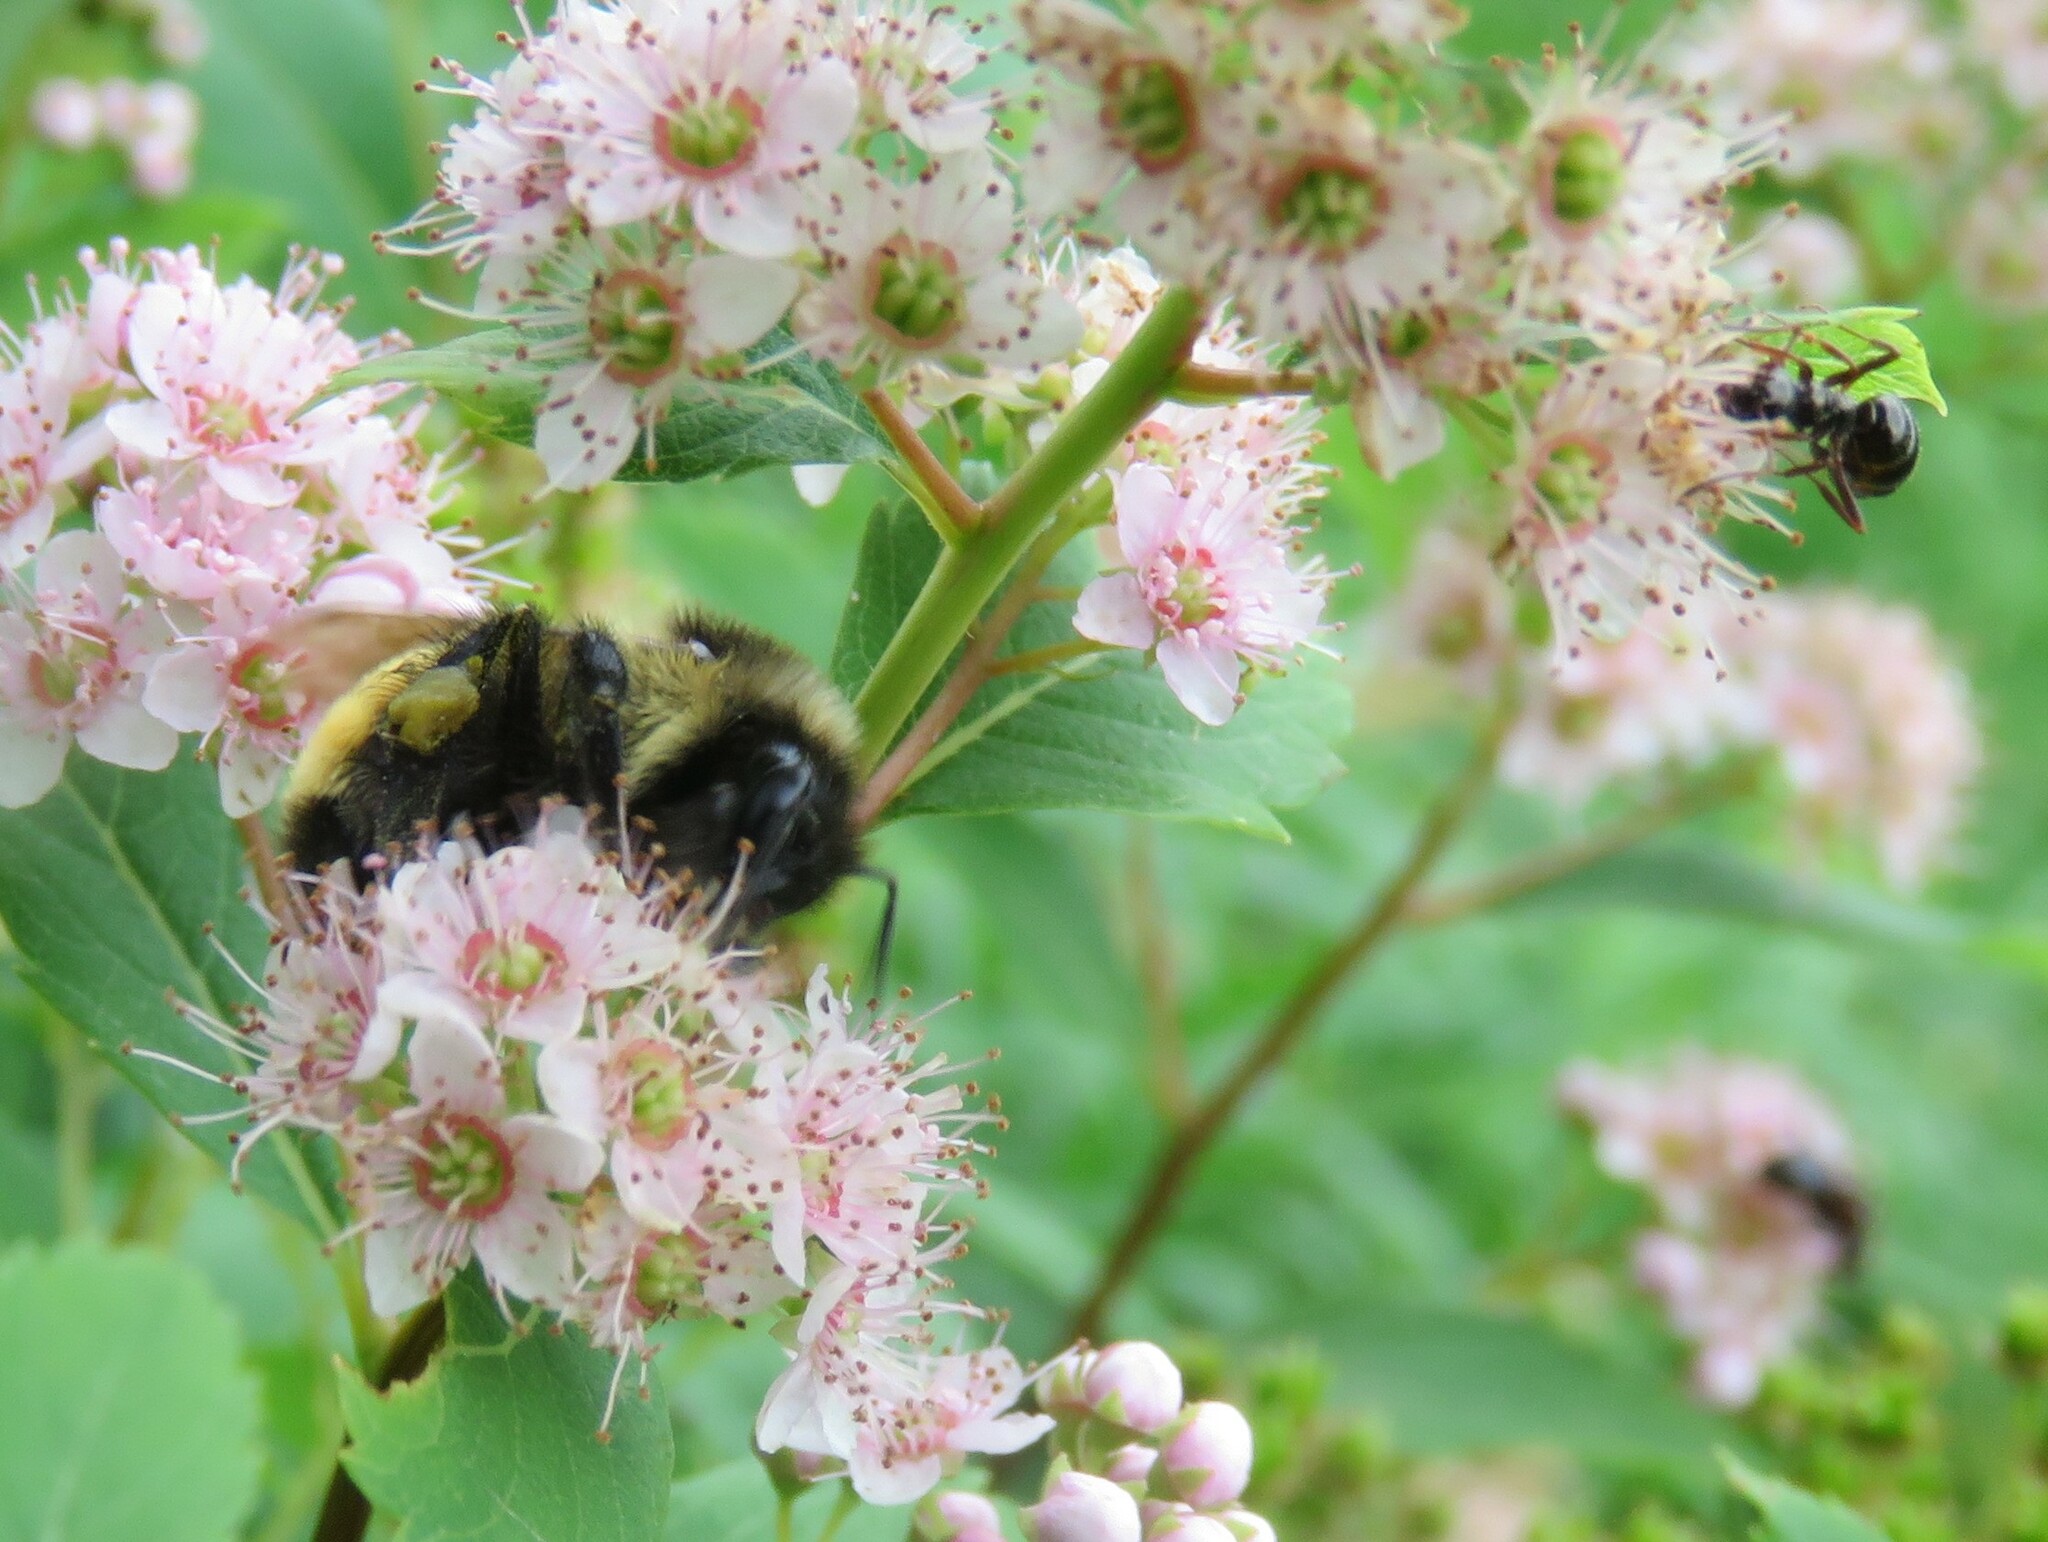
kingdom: Animalia
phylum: Arthropoda
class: Insecta
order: Hymenoptera
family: Apidae
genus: Bombus
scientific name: Bombus ternarius
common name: Tri-colored bumble bee
